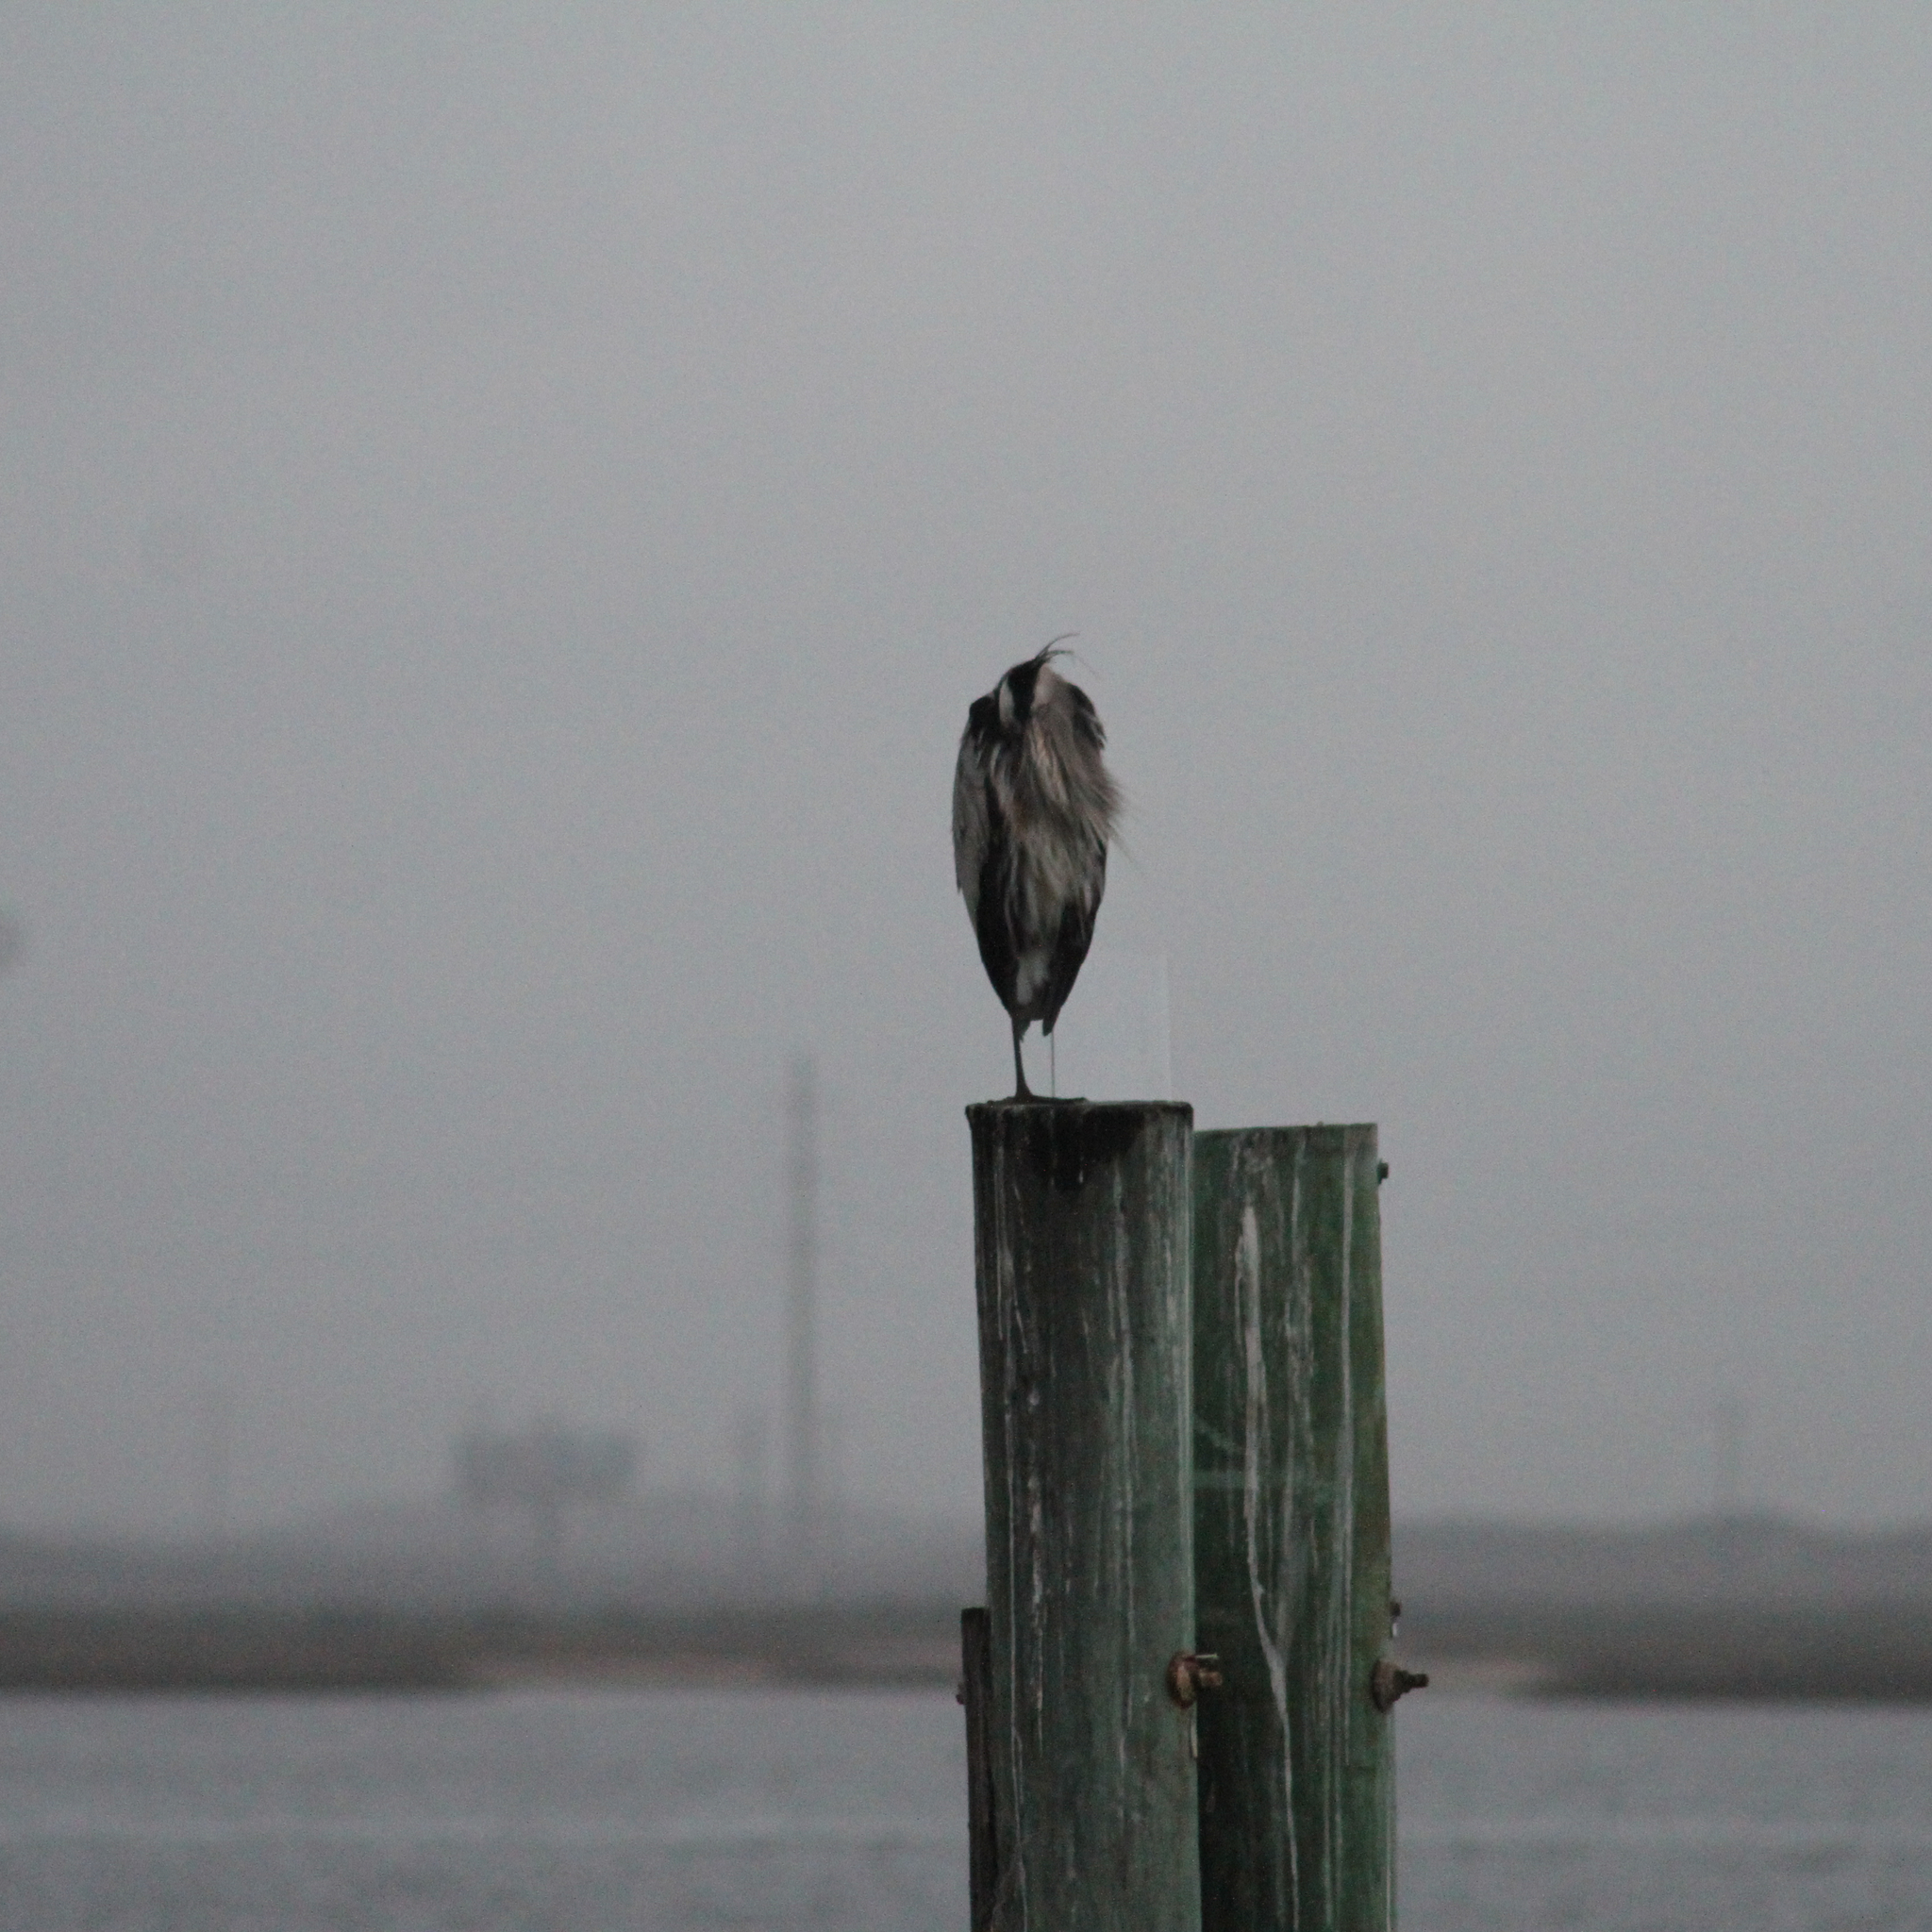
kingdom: Animalia
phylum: Chordata
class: Aves
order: Pelecaniformes
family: Ardeidae
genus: Ardea
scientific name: Ardea herodias
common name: Great blue heron
